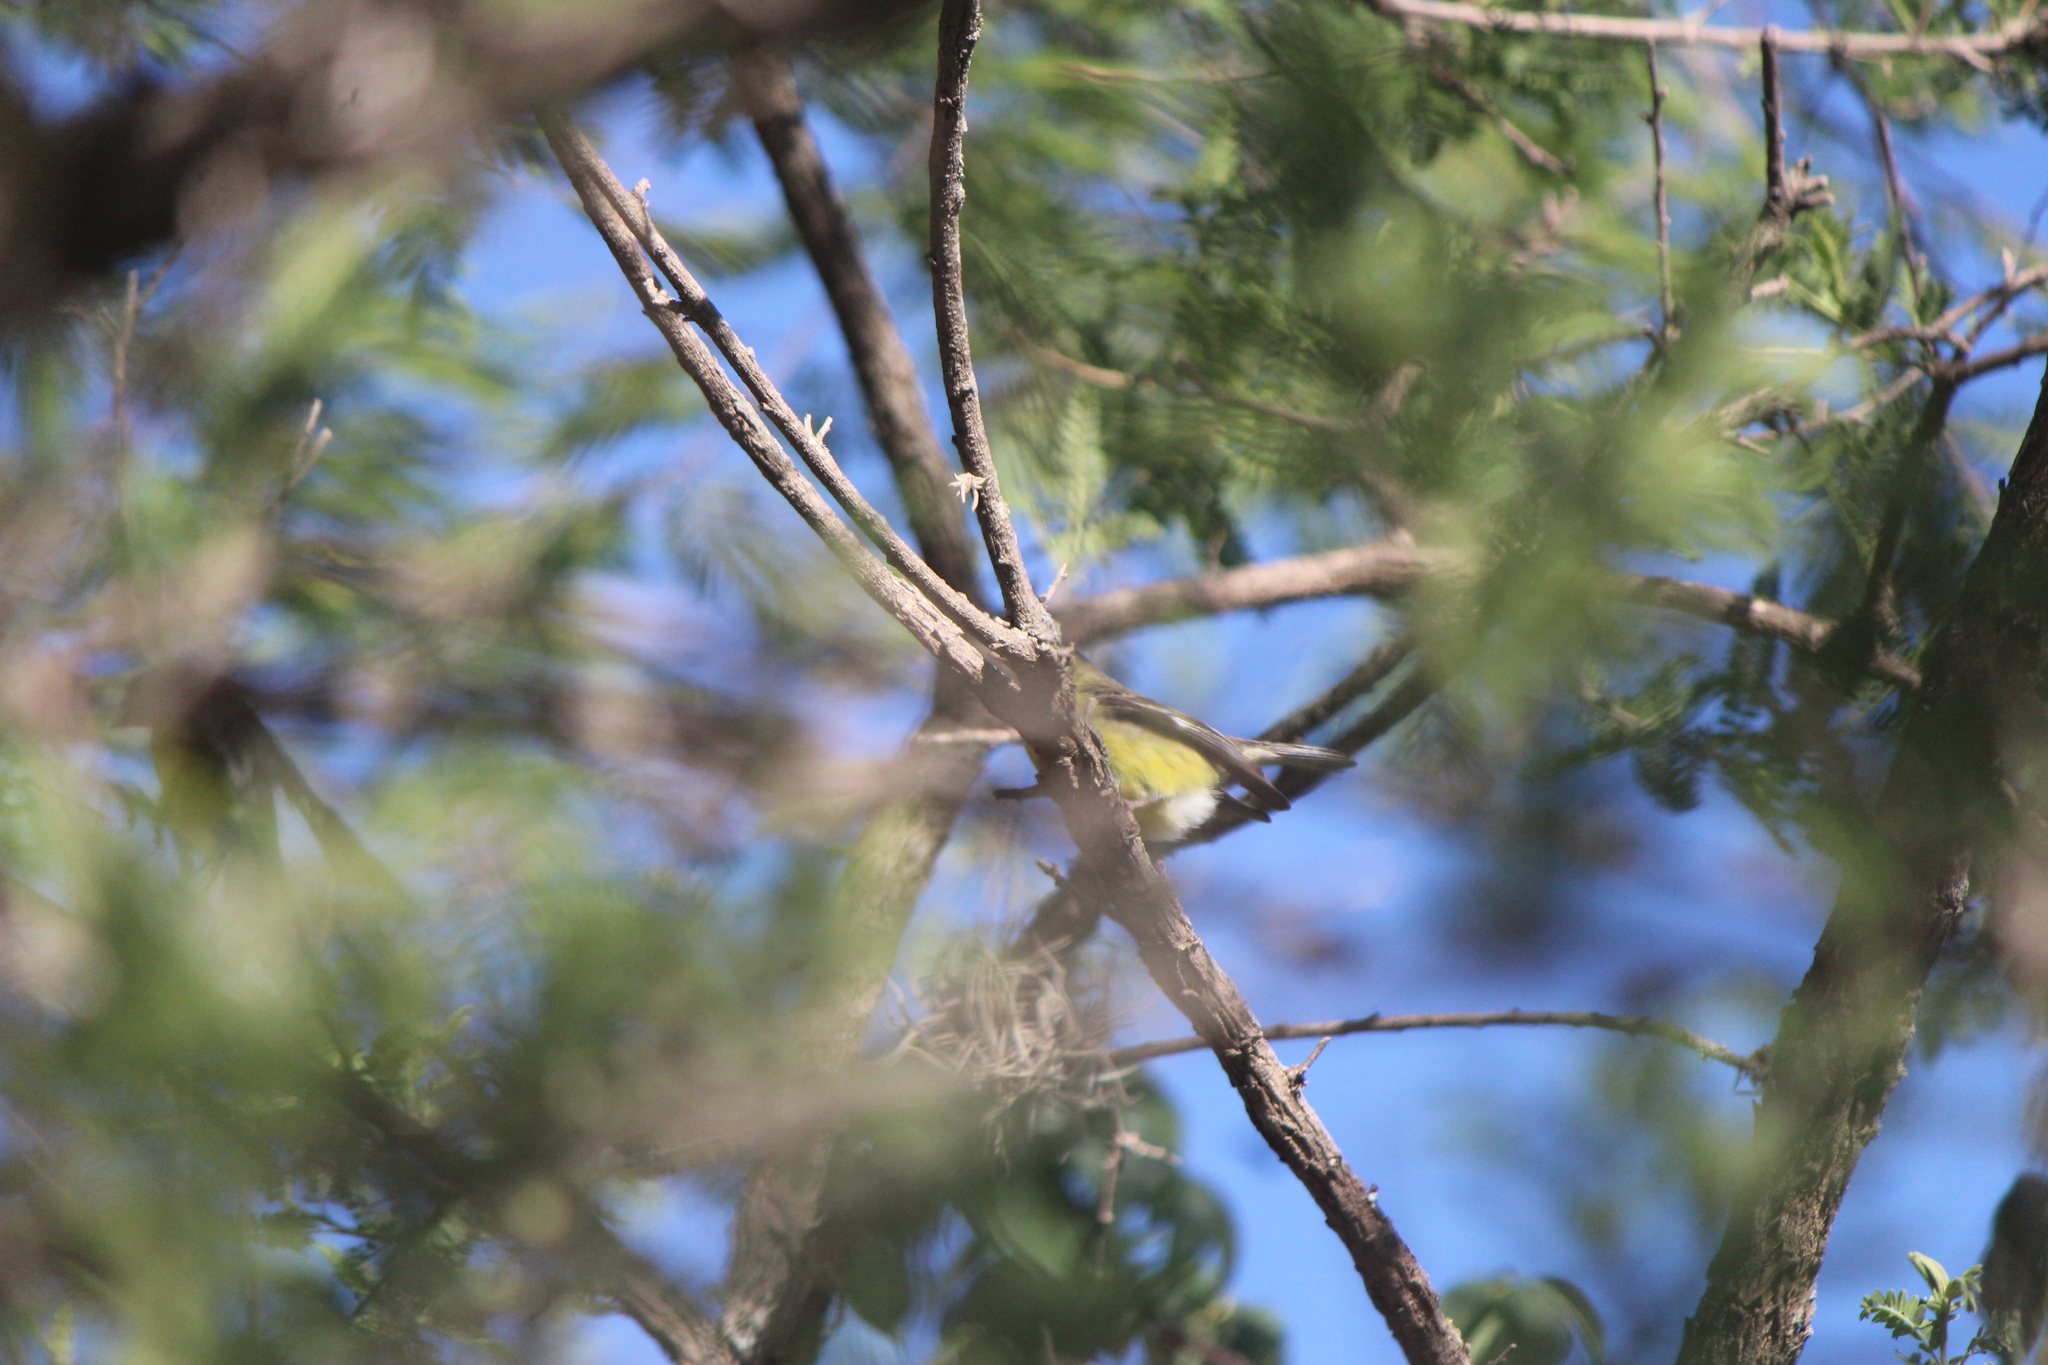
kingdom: Animalia
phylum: Chordata
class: Aves
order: Passeriformes
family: Fringillidae
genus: Spinus
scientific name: Spinus psaltria
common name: Lesser goldfinch
